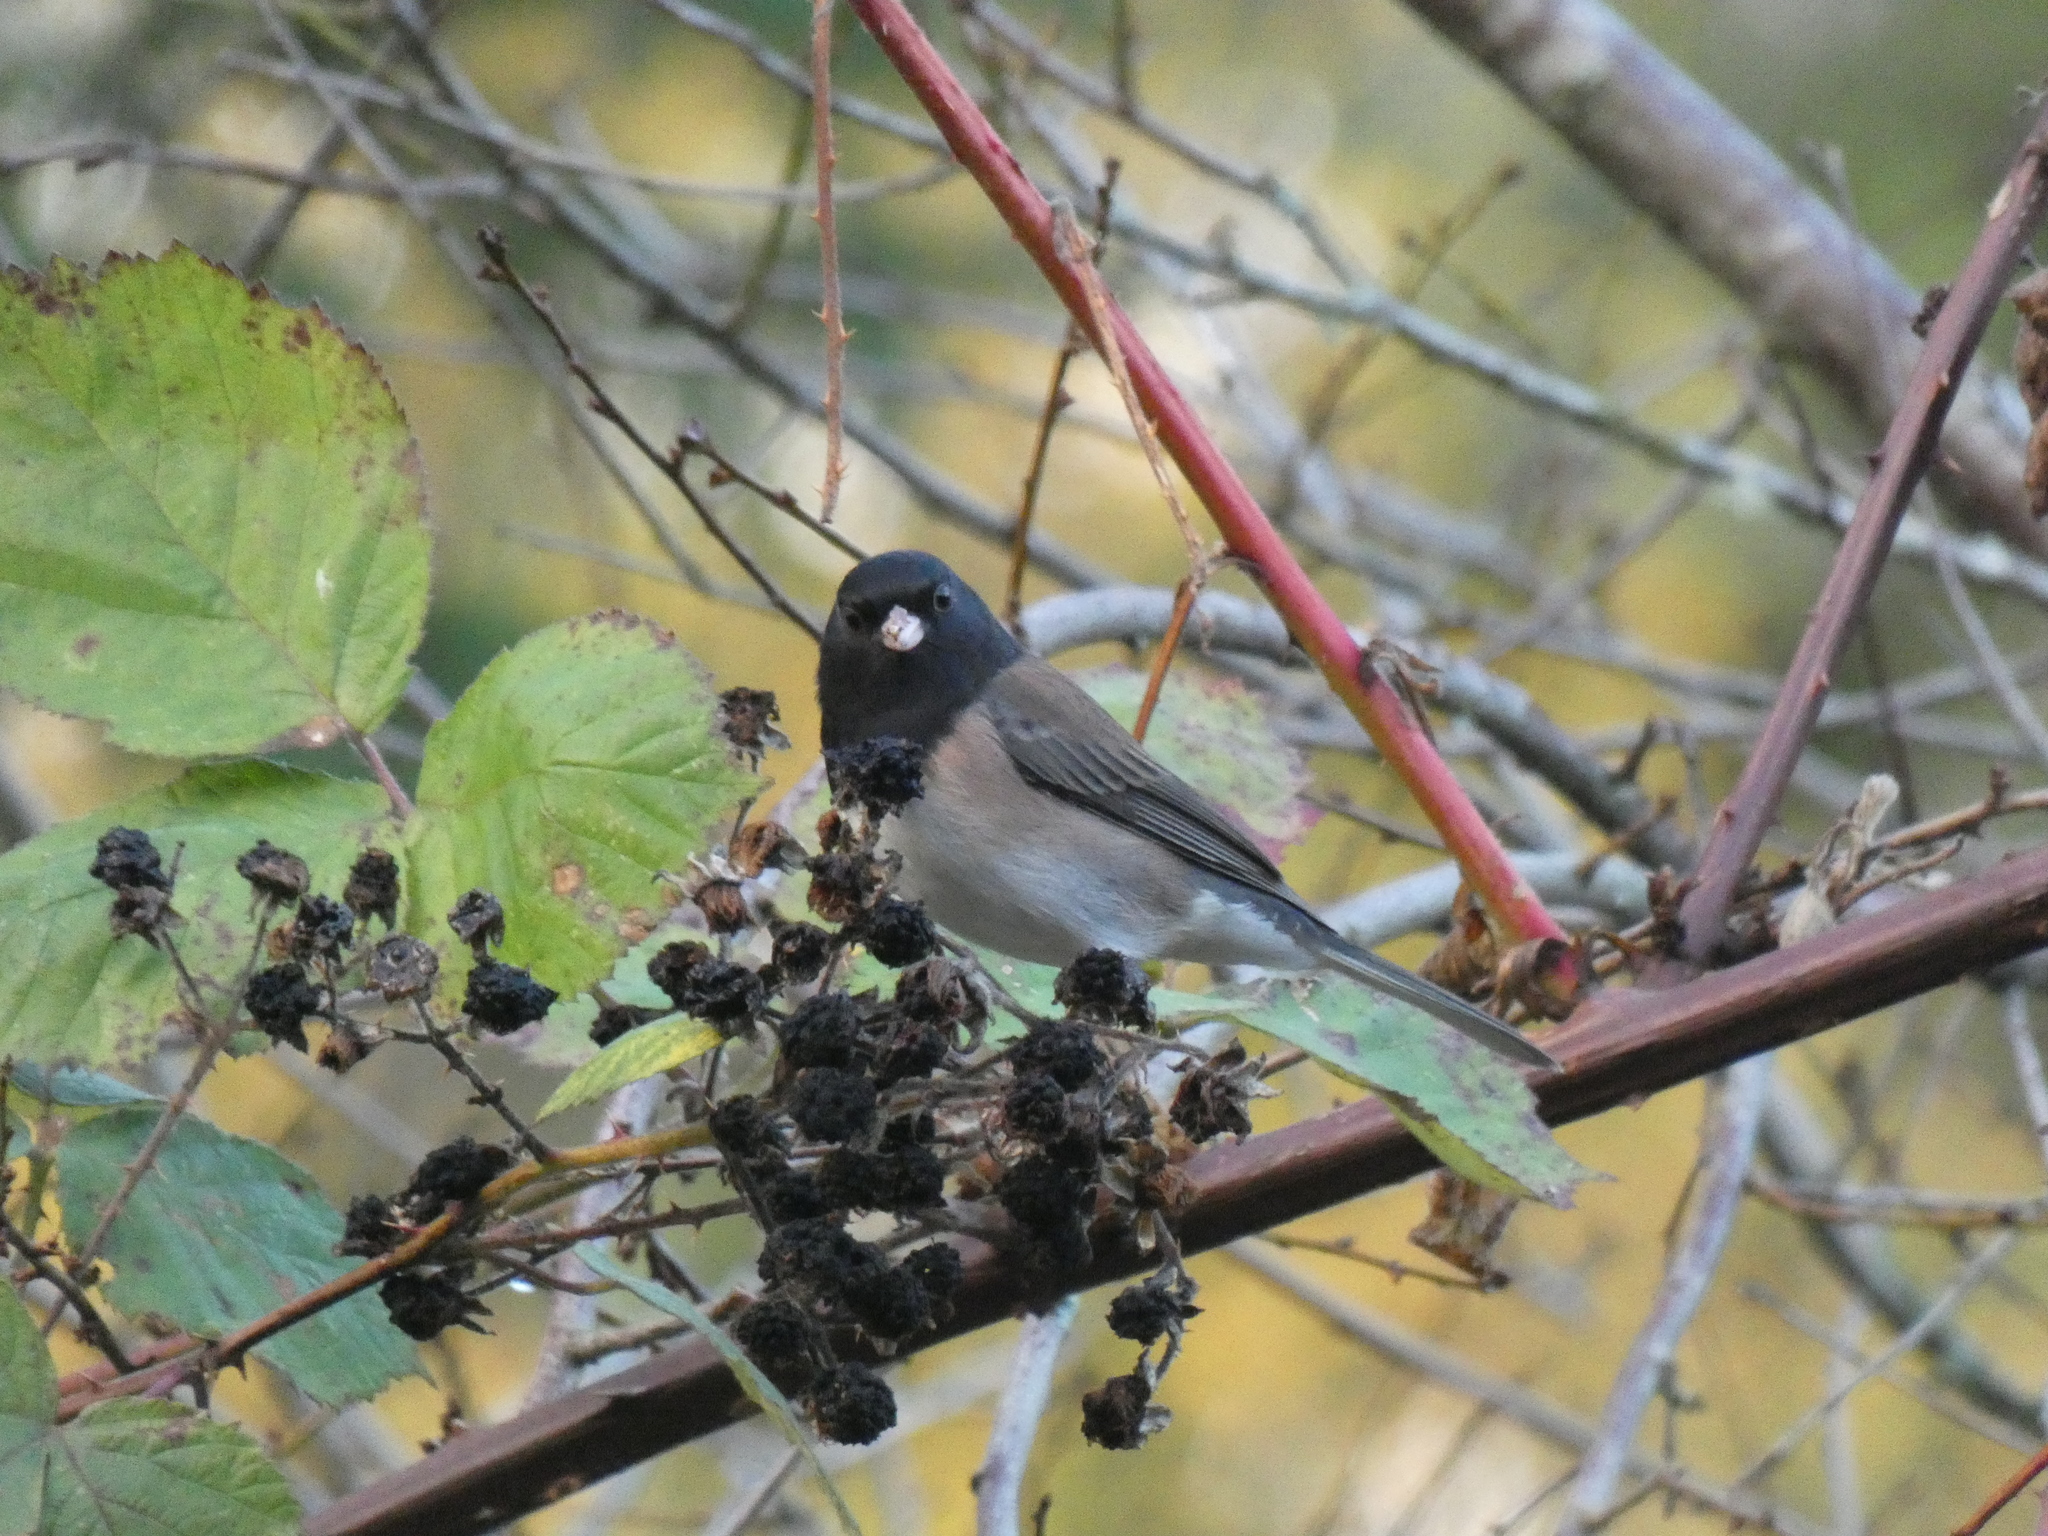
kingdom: Animalia
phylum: Chordata
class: Aves
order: Passeriformes
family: Passerellidae
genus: Junco
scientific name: Junco hyemalis
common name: Dark-eyed junco
